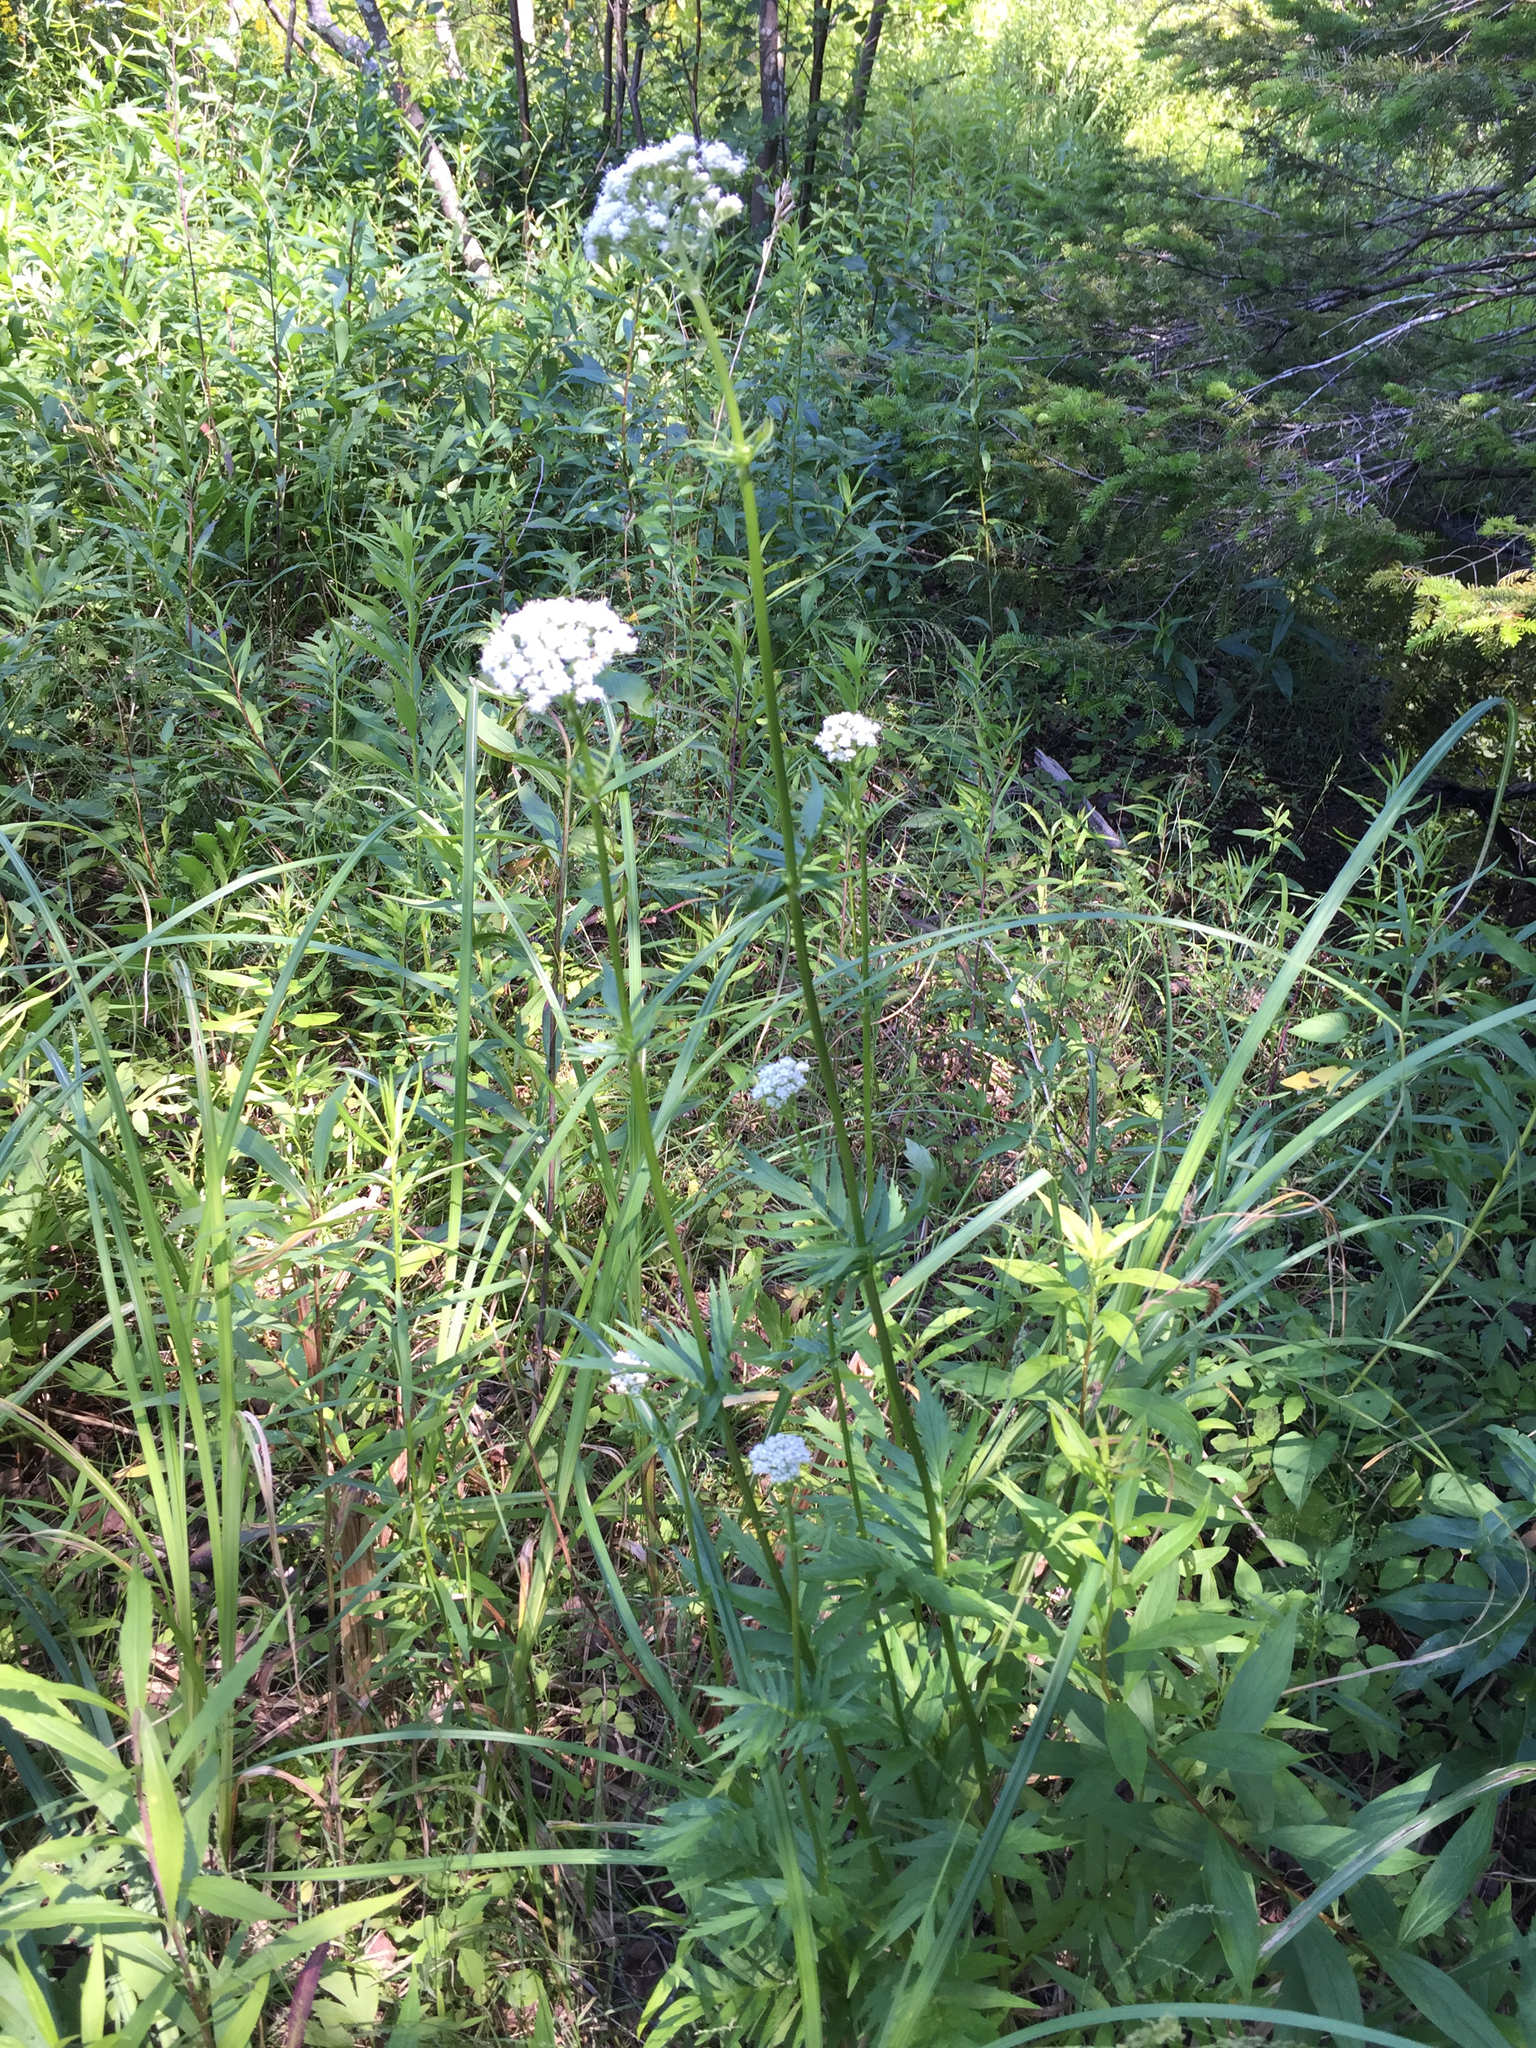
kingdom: Plantae
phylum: Tracheophyta
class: Magnoliopsida
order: Dipsacales
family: Caprifoliaceae
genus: Valeriana
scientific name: Valeriana officinalis
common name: Common valerian
